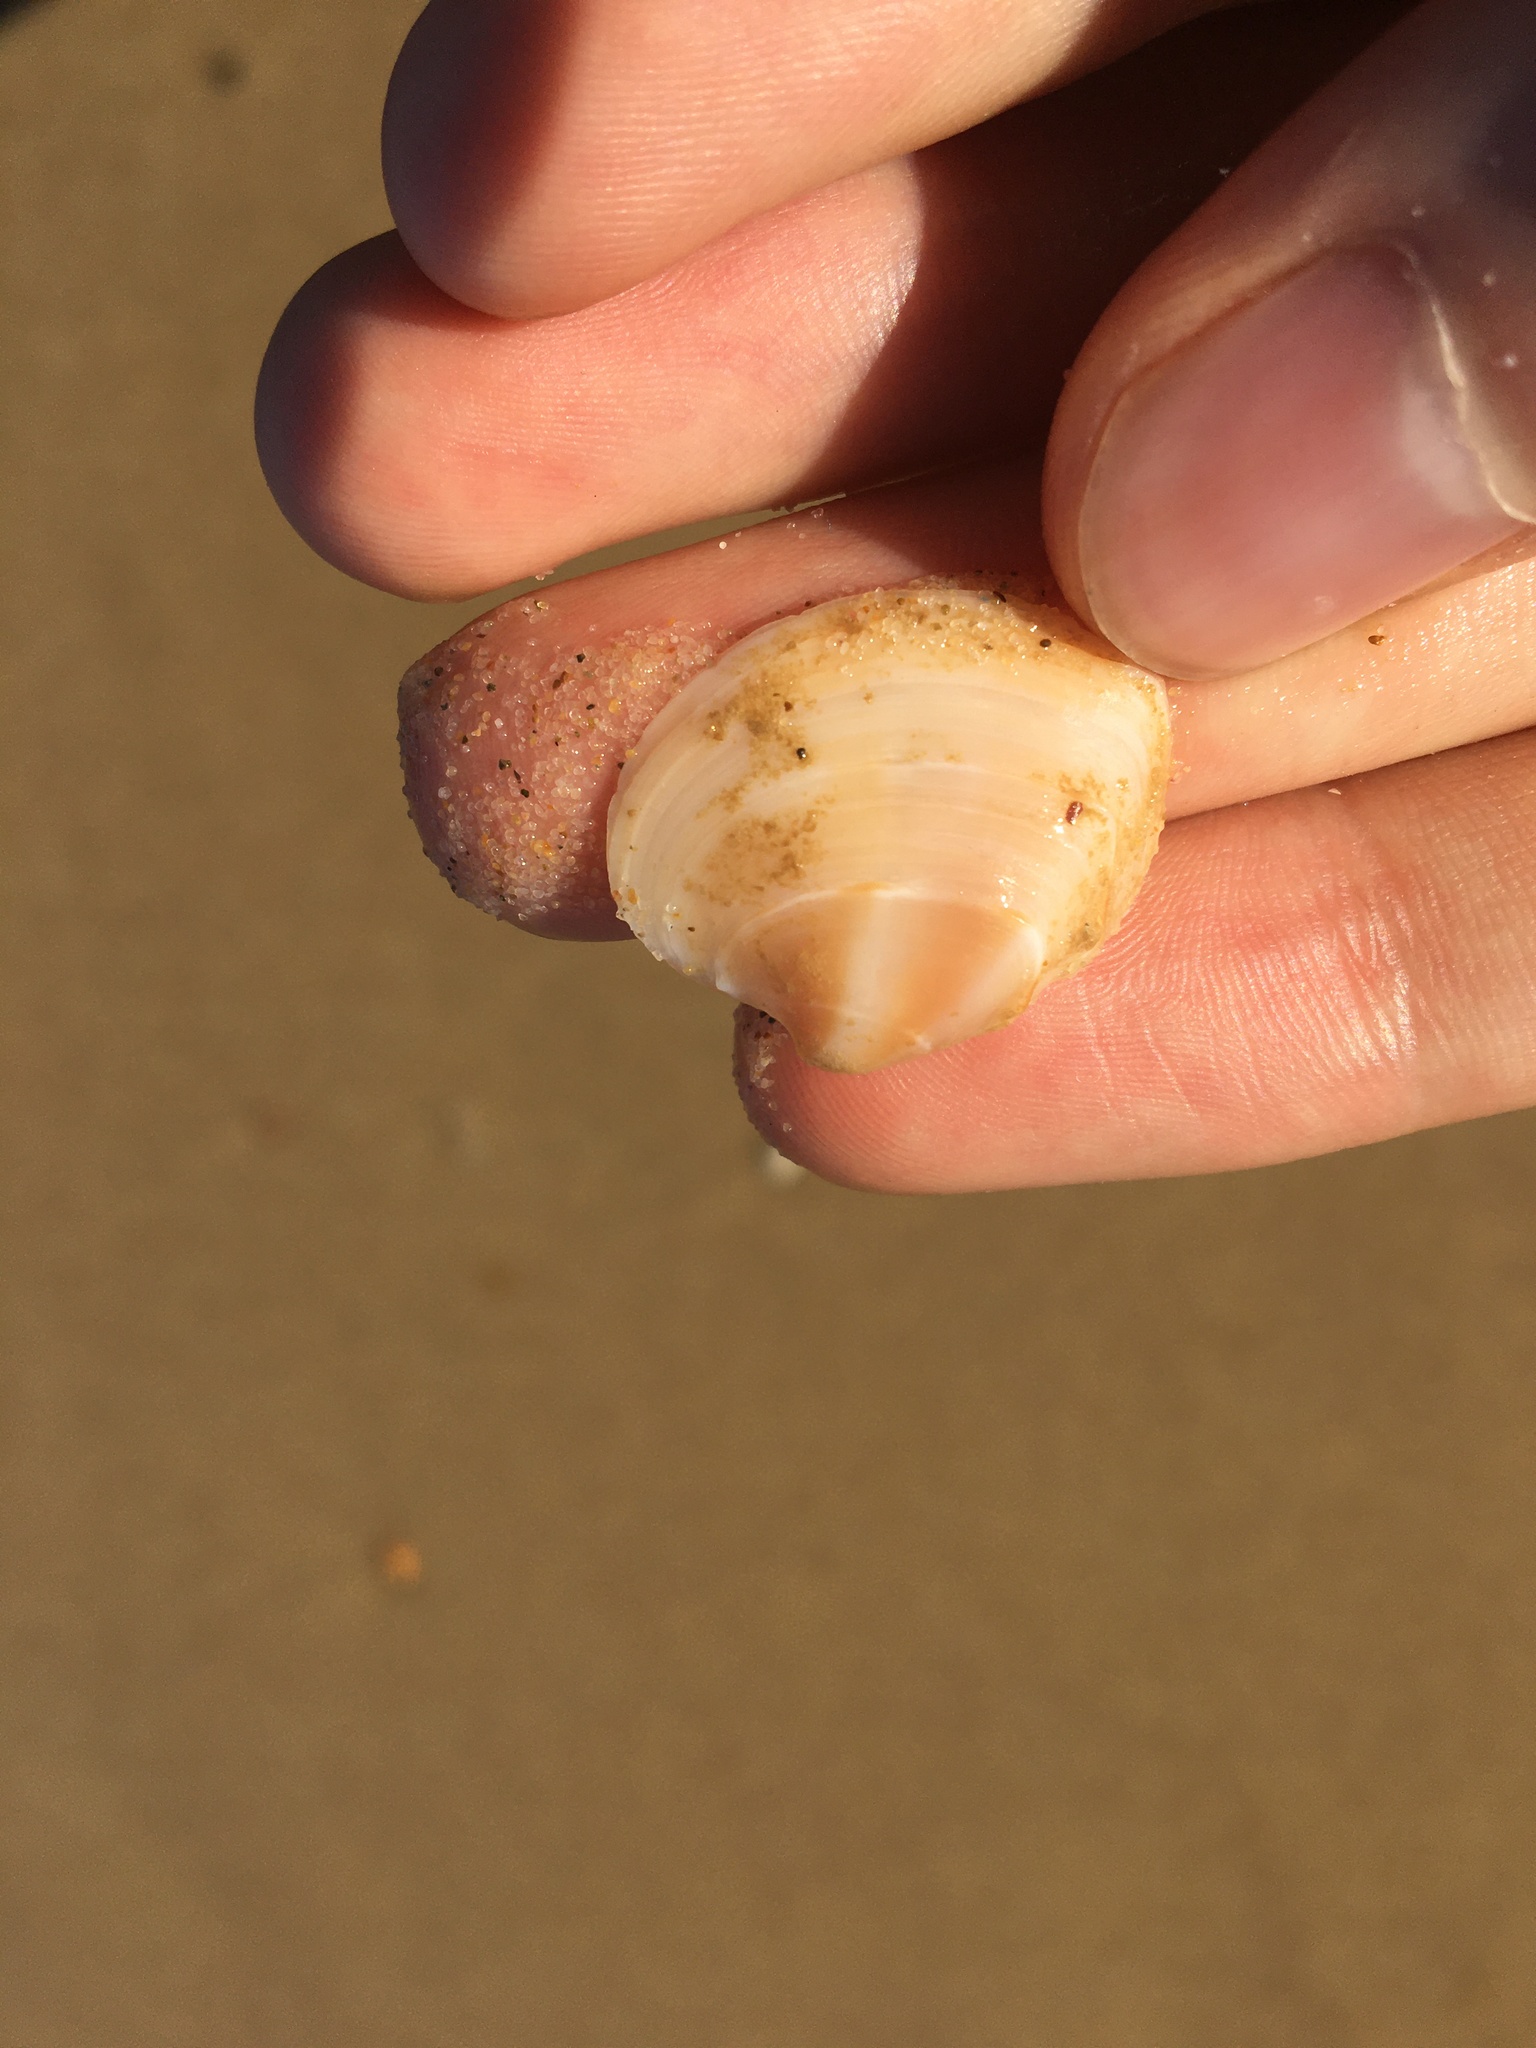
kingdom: Animalia
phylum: Mollusca
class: Bivalvia
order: Venerida
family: Veneridae
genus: Bassina
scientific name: Bassina jacksonii
